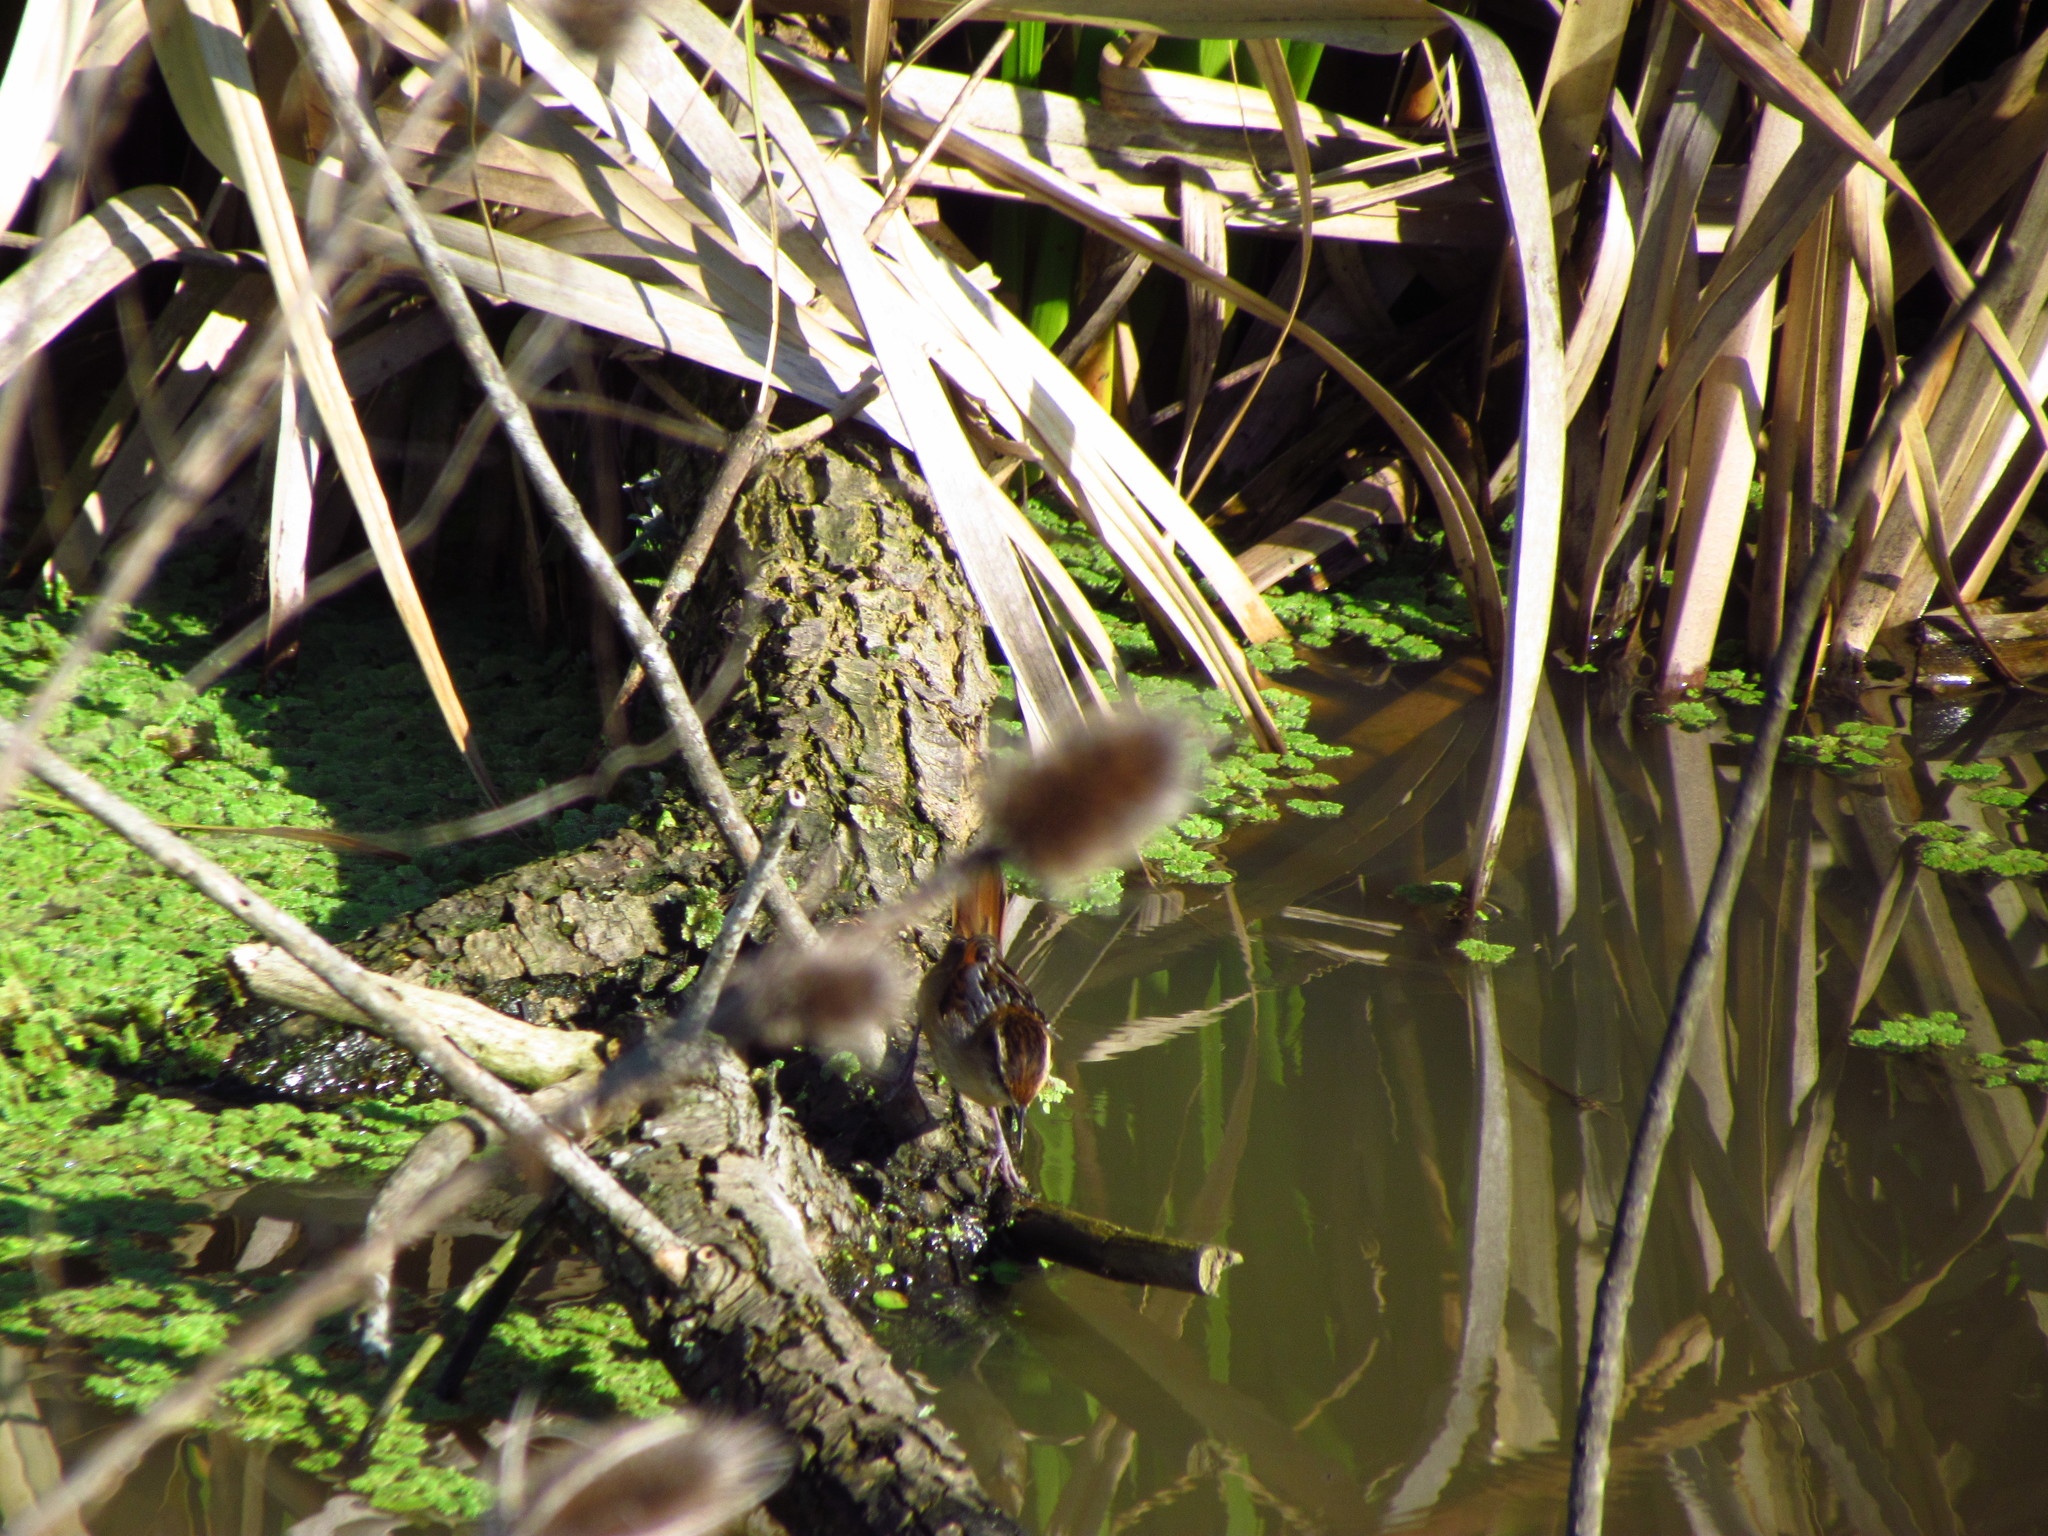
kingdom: Animalia
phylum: Chordata
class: Aves
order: Passeriformes
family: Furnariidae
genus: Phleocryptes
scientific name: Phleocryptes melanops
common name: Wren-like rushbird
